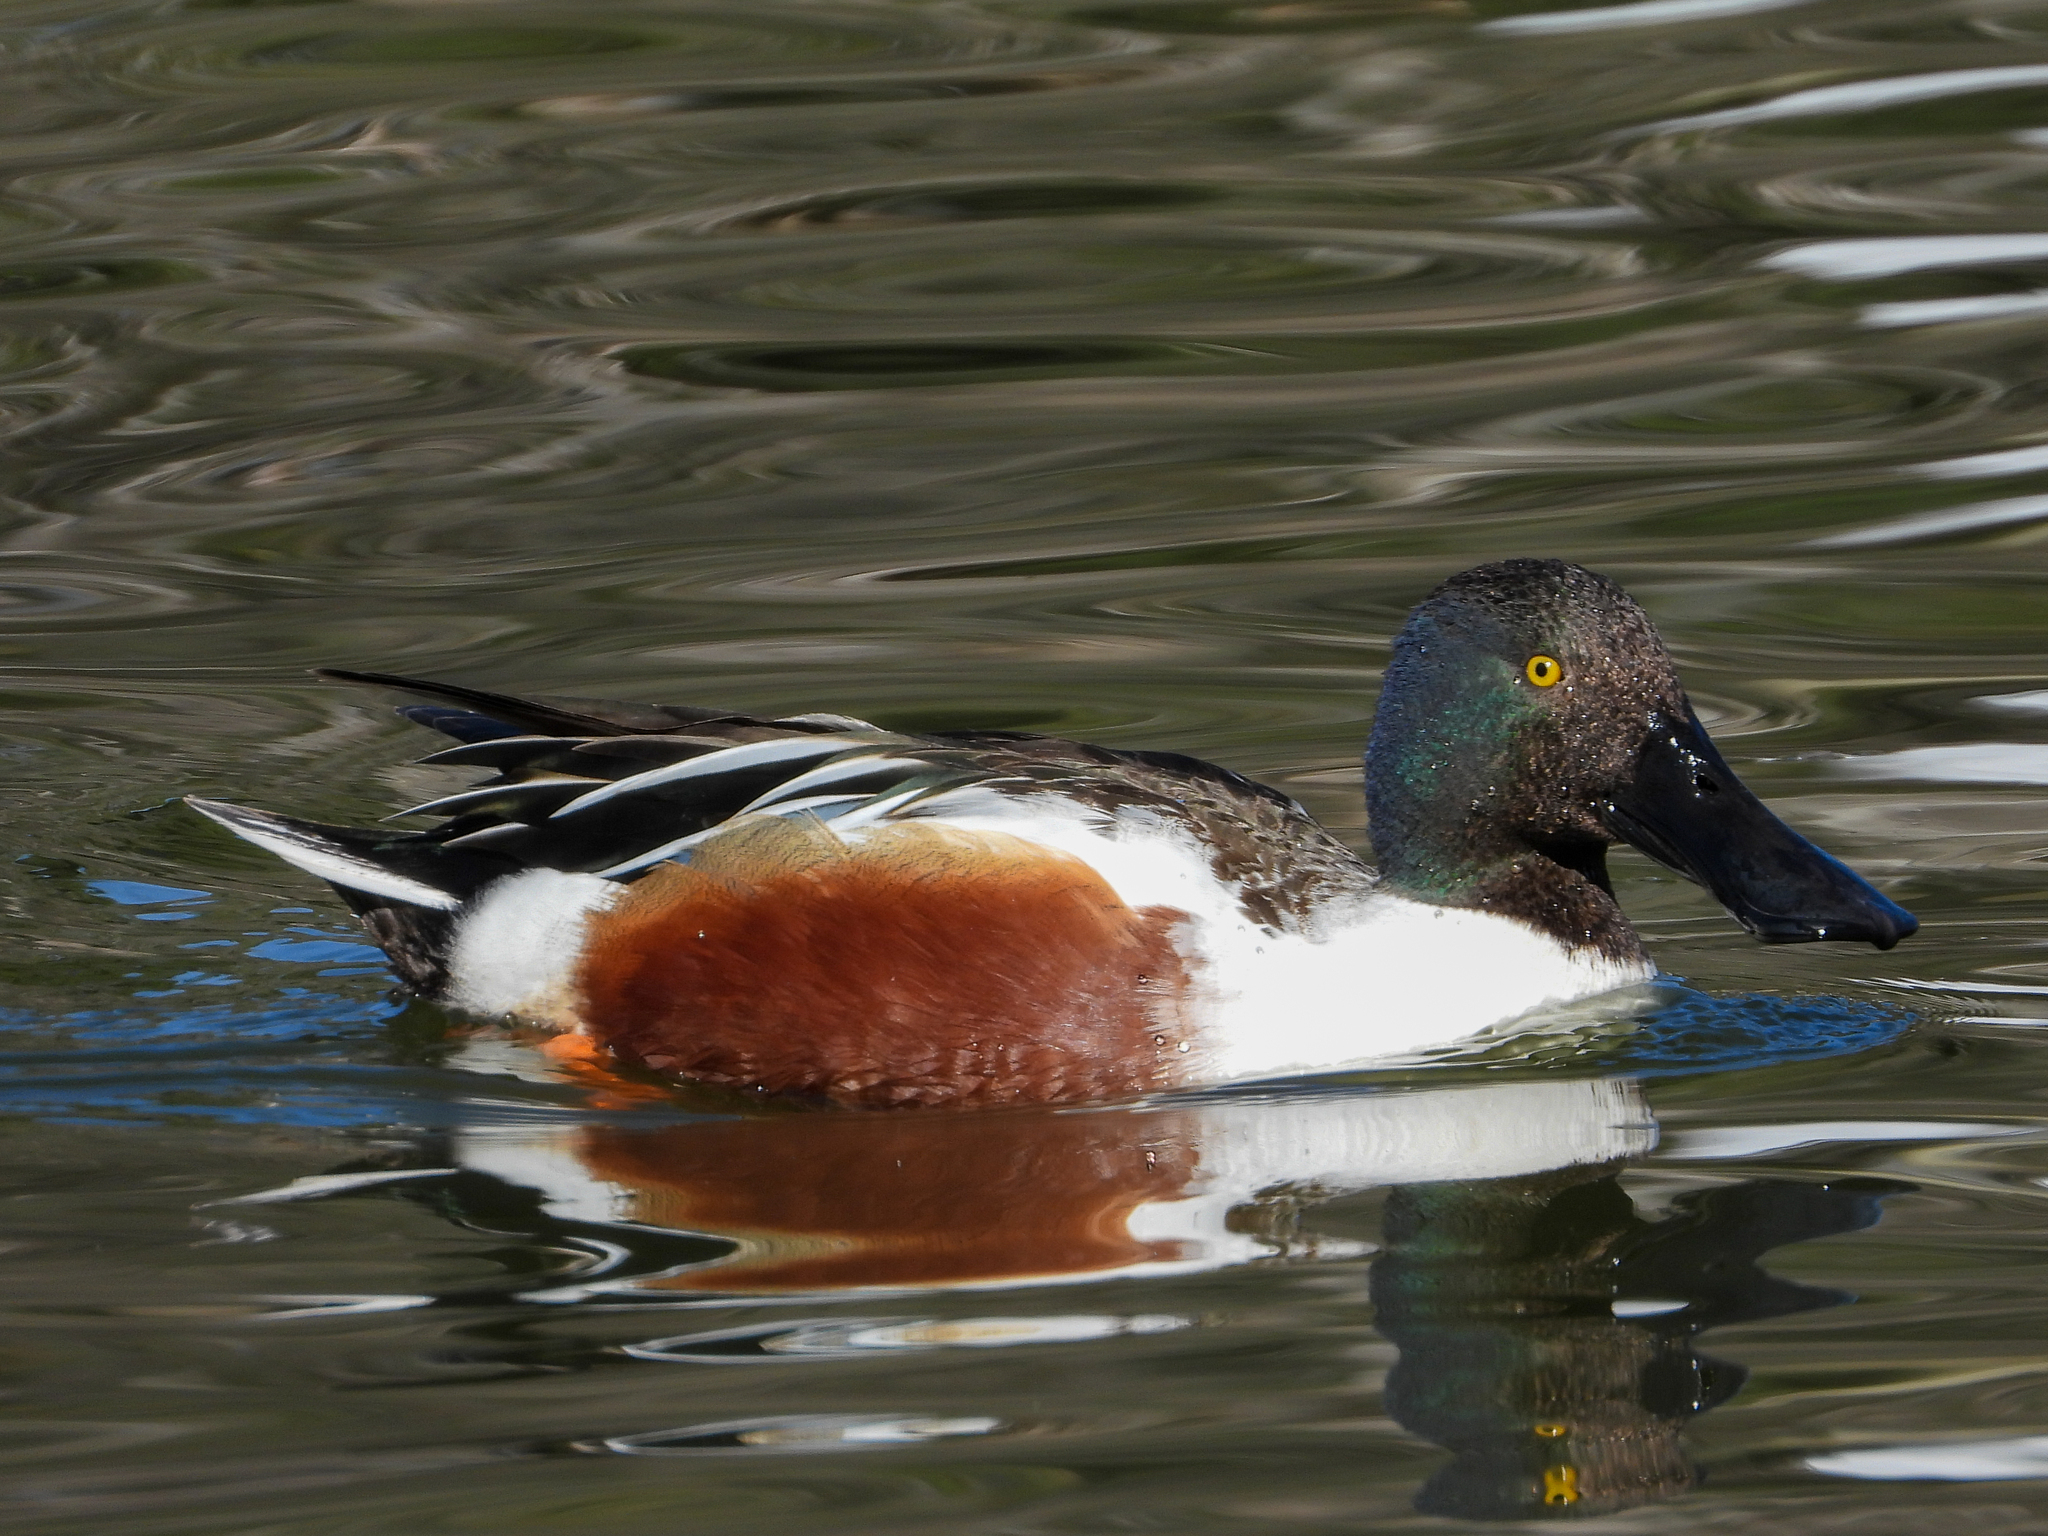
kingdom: Animalia
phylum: Chordata
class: Aves
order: Anseriformes
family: Anatidae
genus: Spatula
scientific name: Spatula clypeata
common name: Northern shoveler
